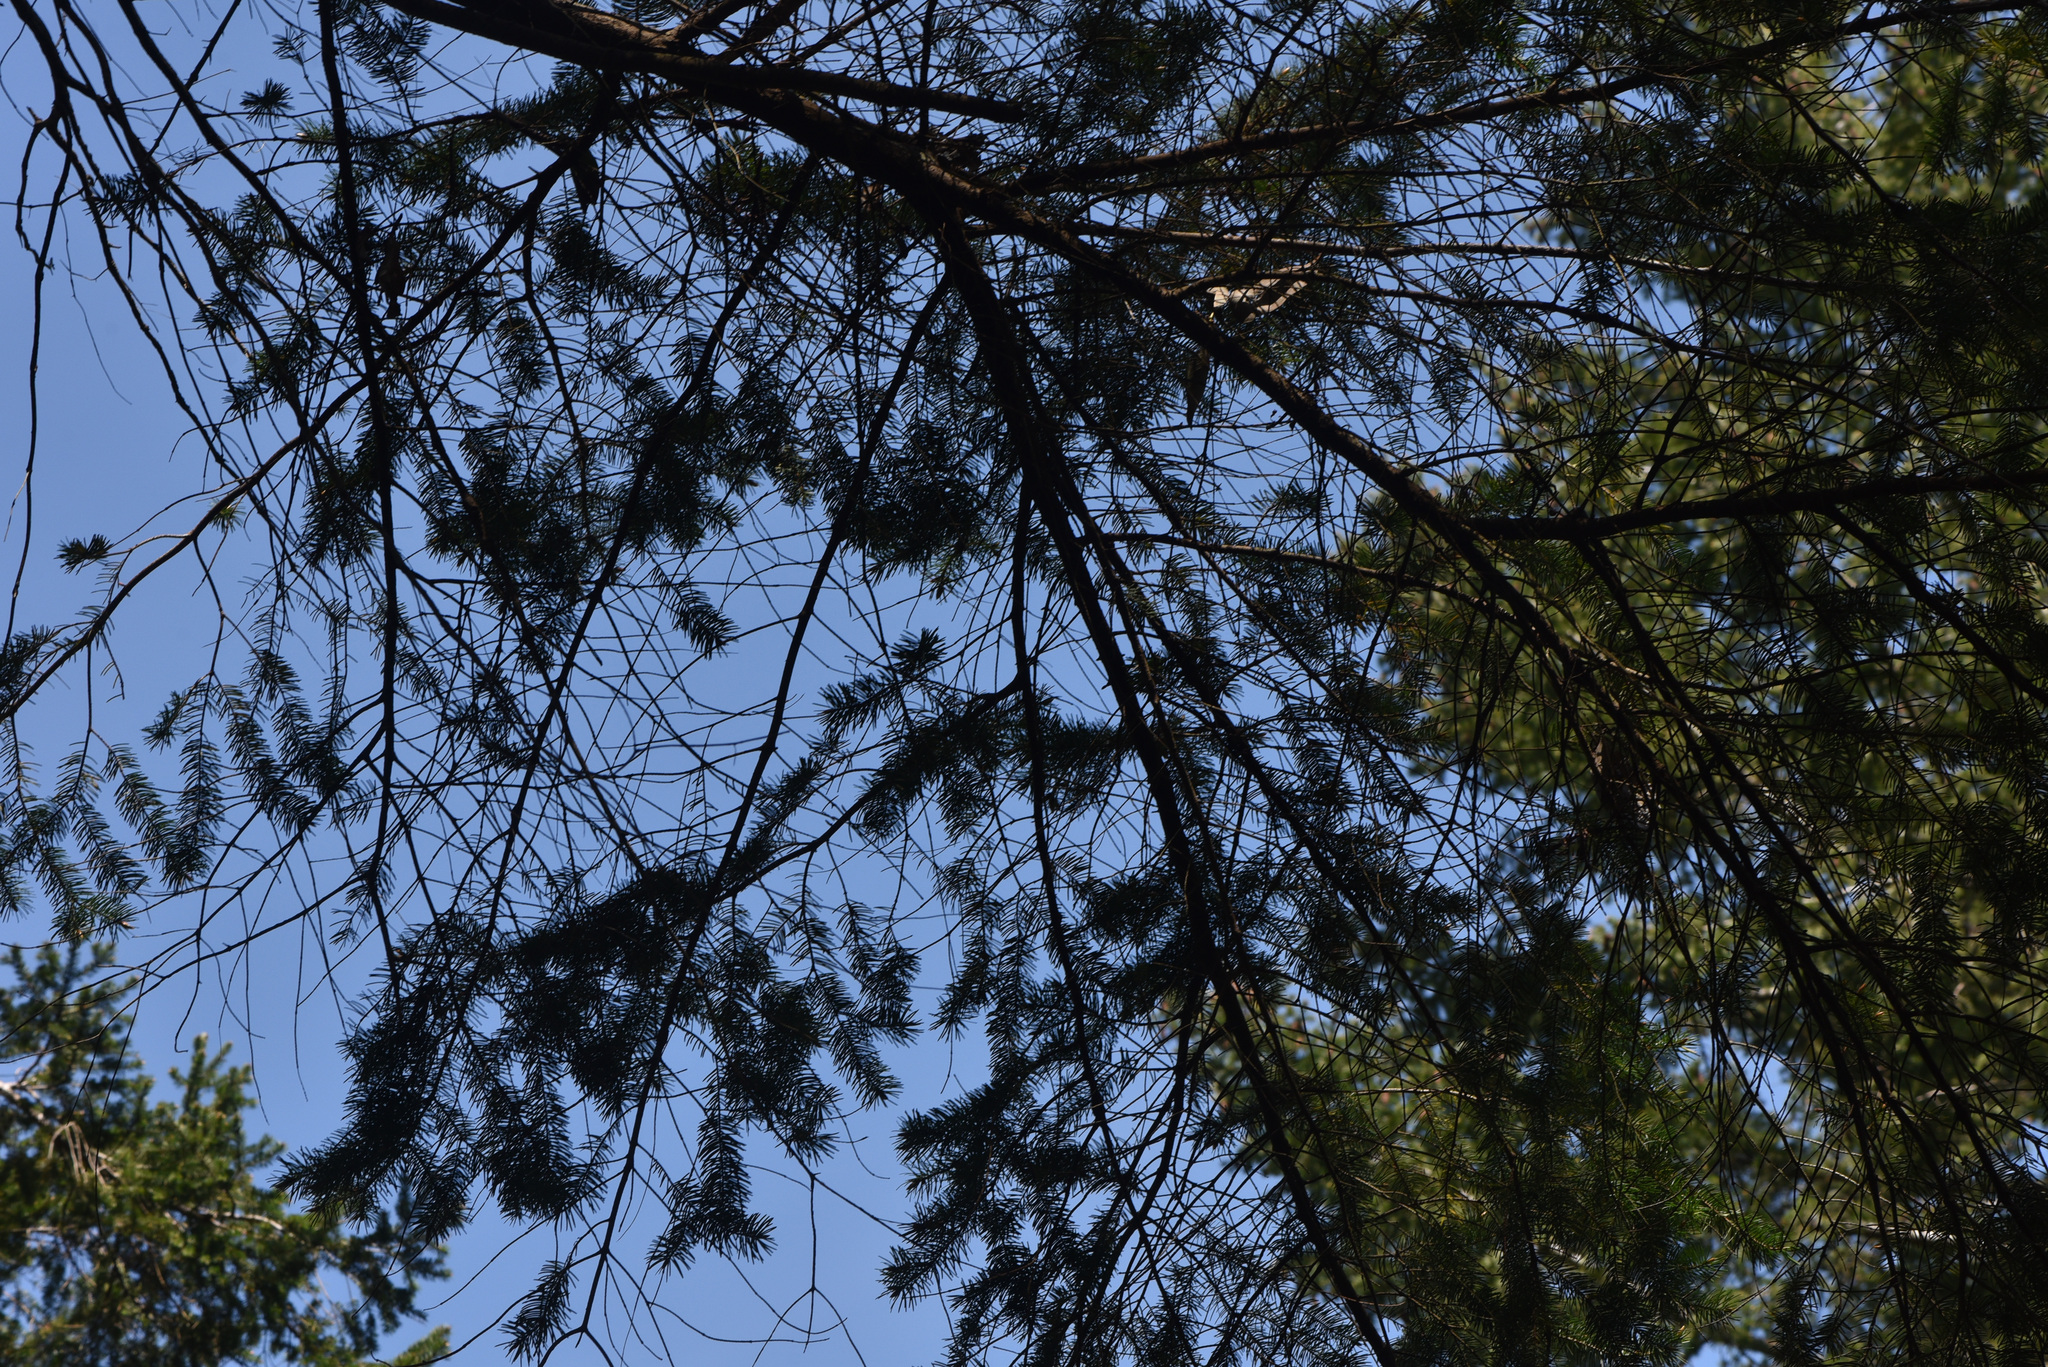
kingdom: Plantae
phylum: Tracheophyta
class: Pinopsida
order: Pinales
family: Pinaceae
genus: Pseudotsuga
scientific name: Pseudotsuga menziesii
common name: Douglas fir
